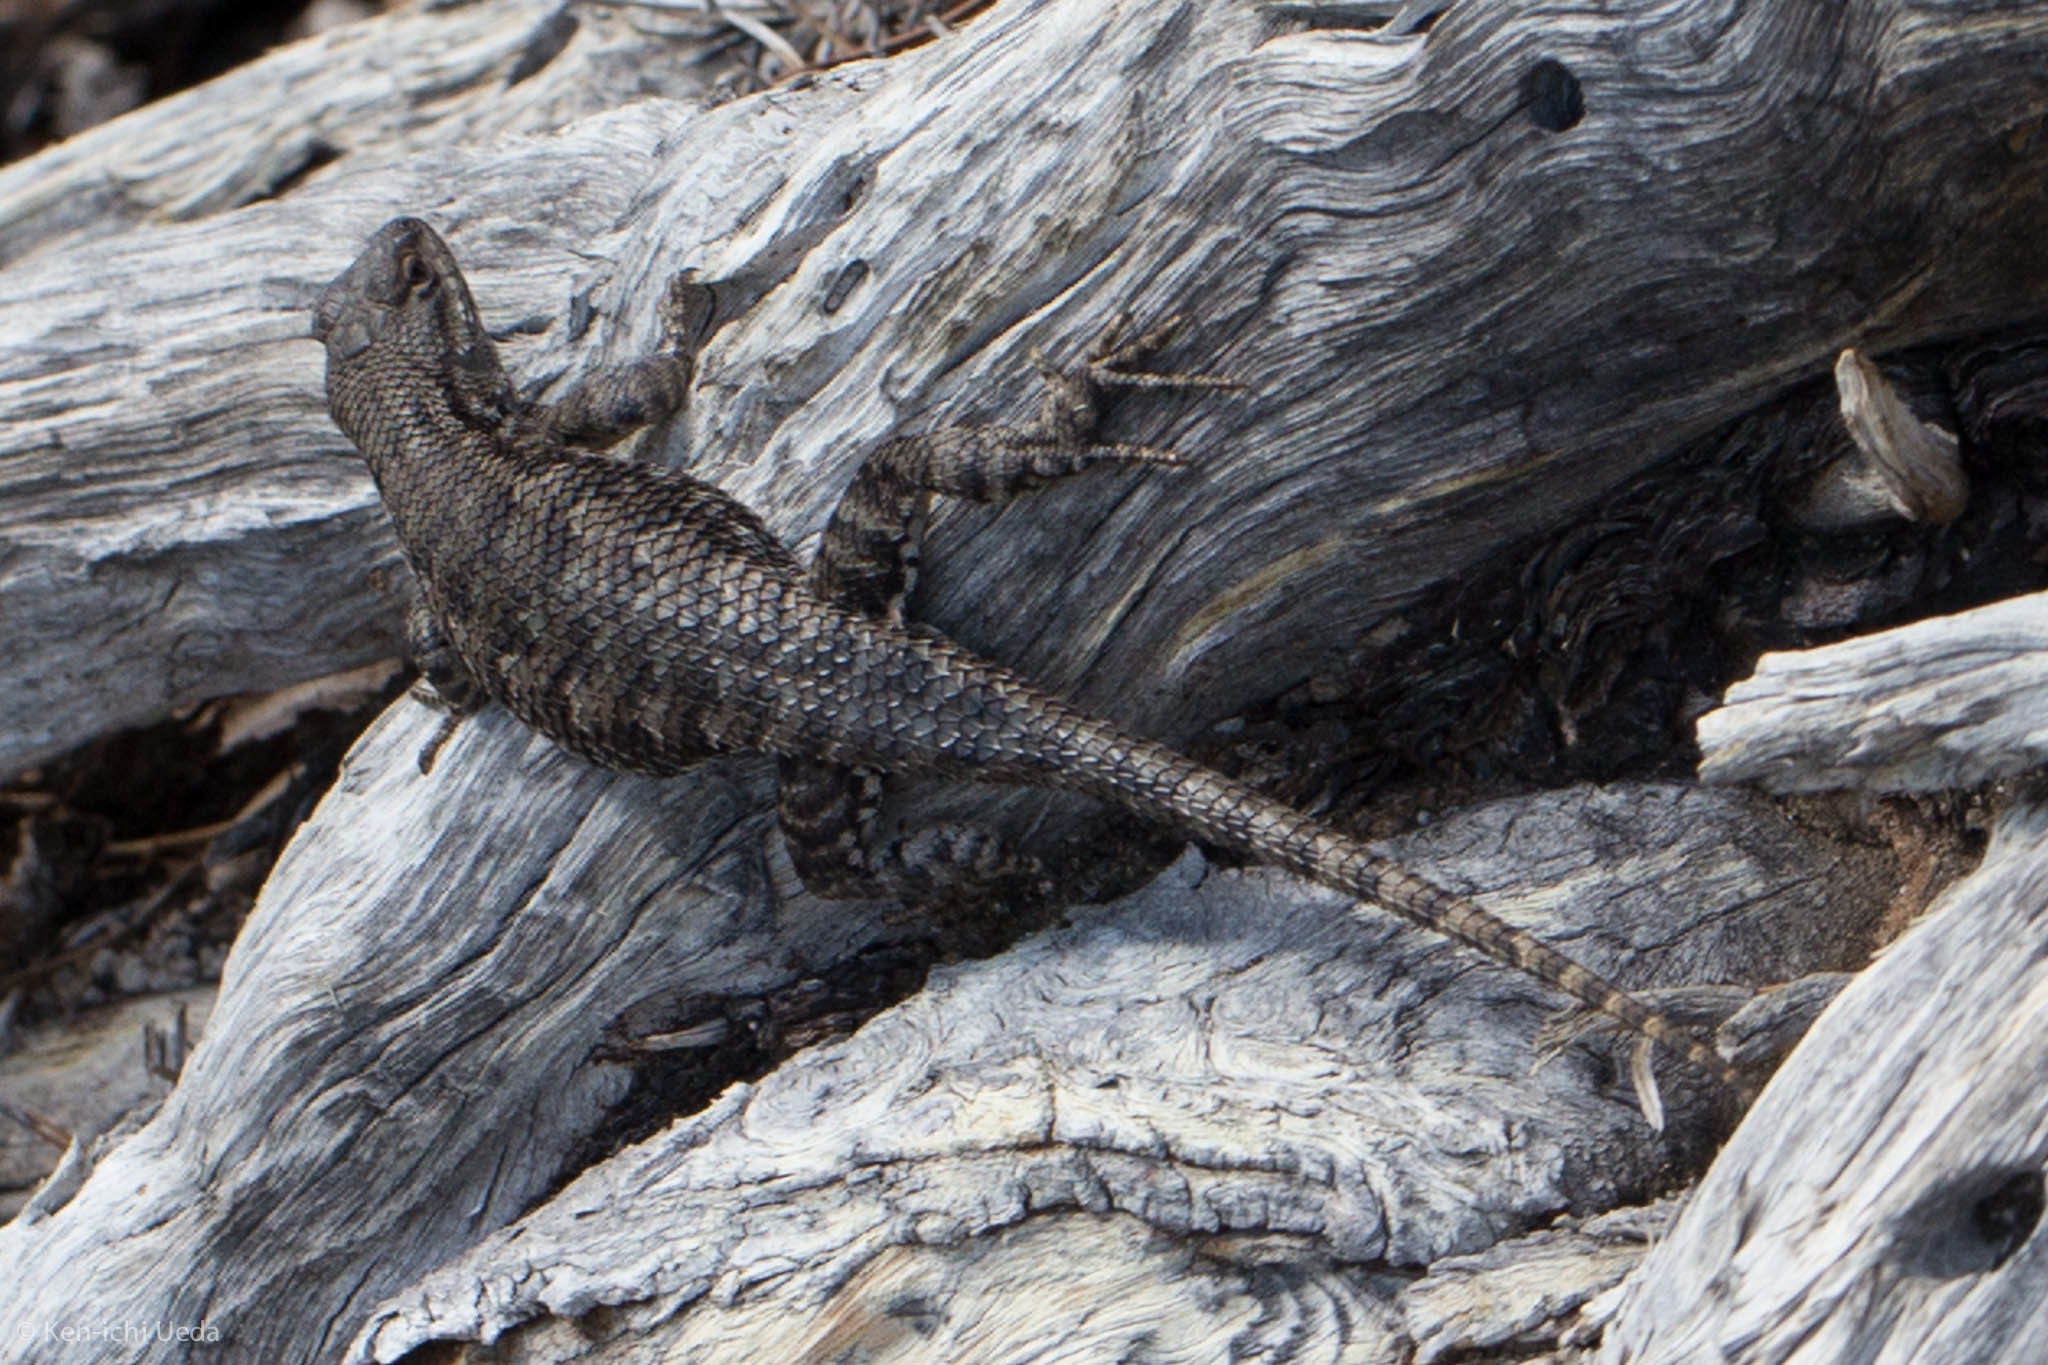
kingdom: Animalia
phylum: Chordata
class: Squamata
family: Phrynosomatidae
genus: Sceloporus
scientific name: Sceloporus occidentalis
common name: Western fence lizard
